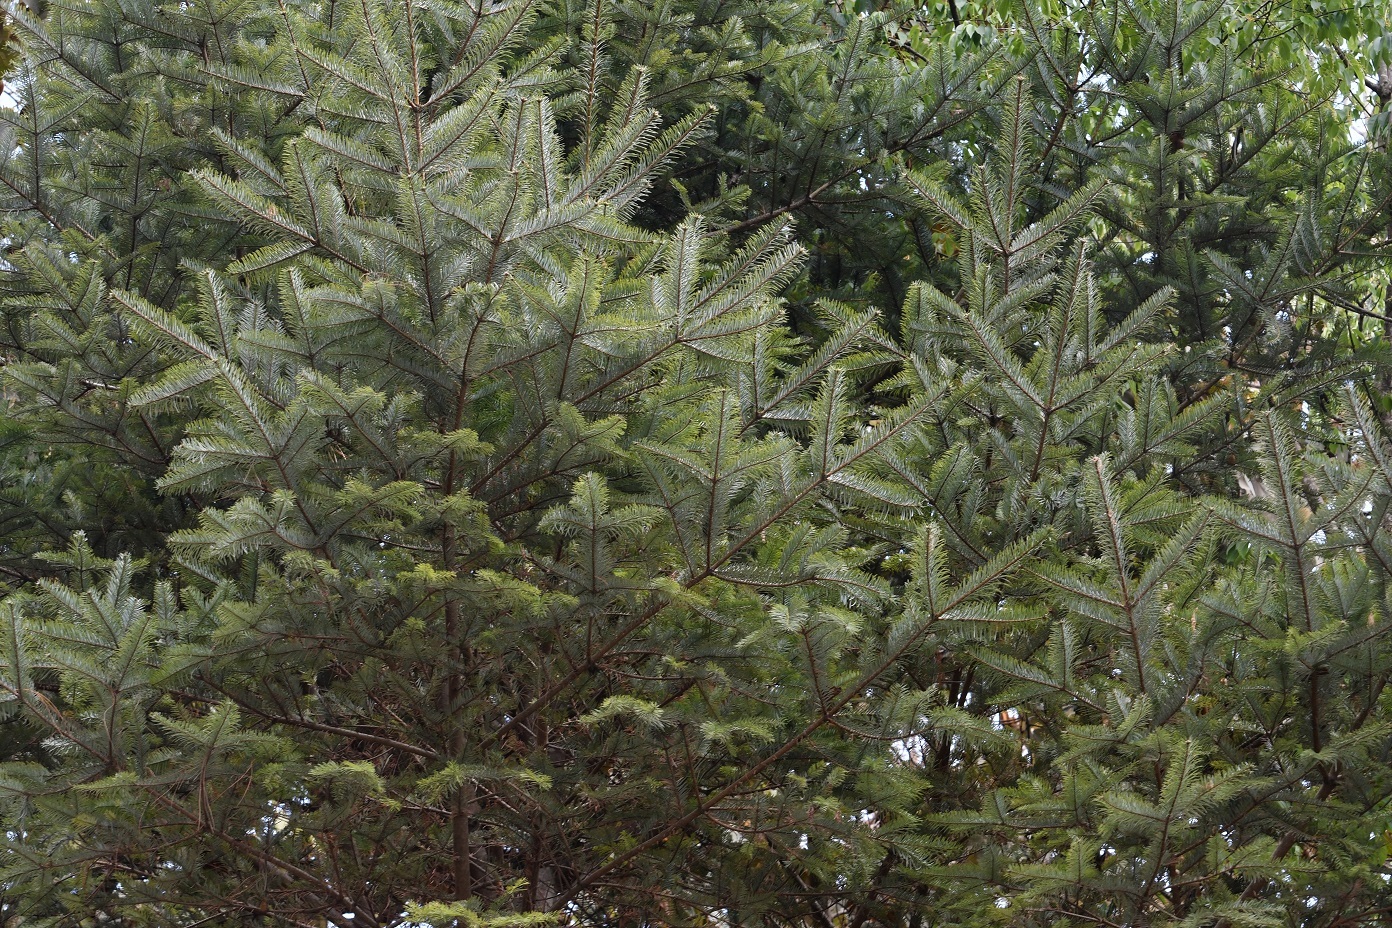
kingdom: Plantae
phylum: Tracheophyta
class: Pinopsida
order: Pinales
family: Pinaceae
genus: Abies
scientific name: Abies guatemalensis
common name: Guatemalan fir
